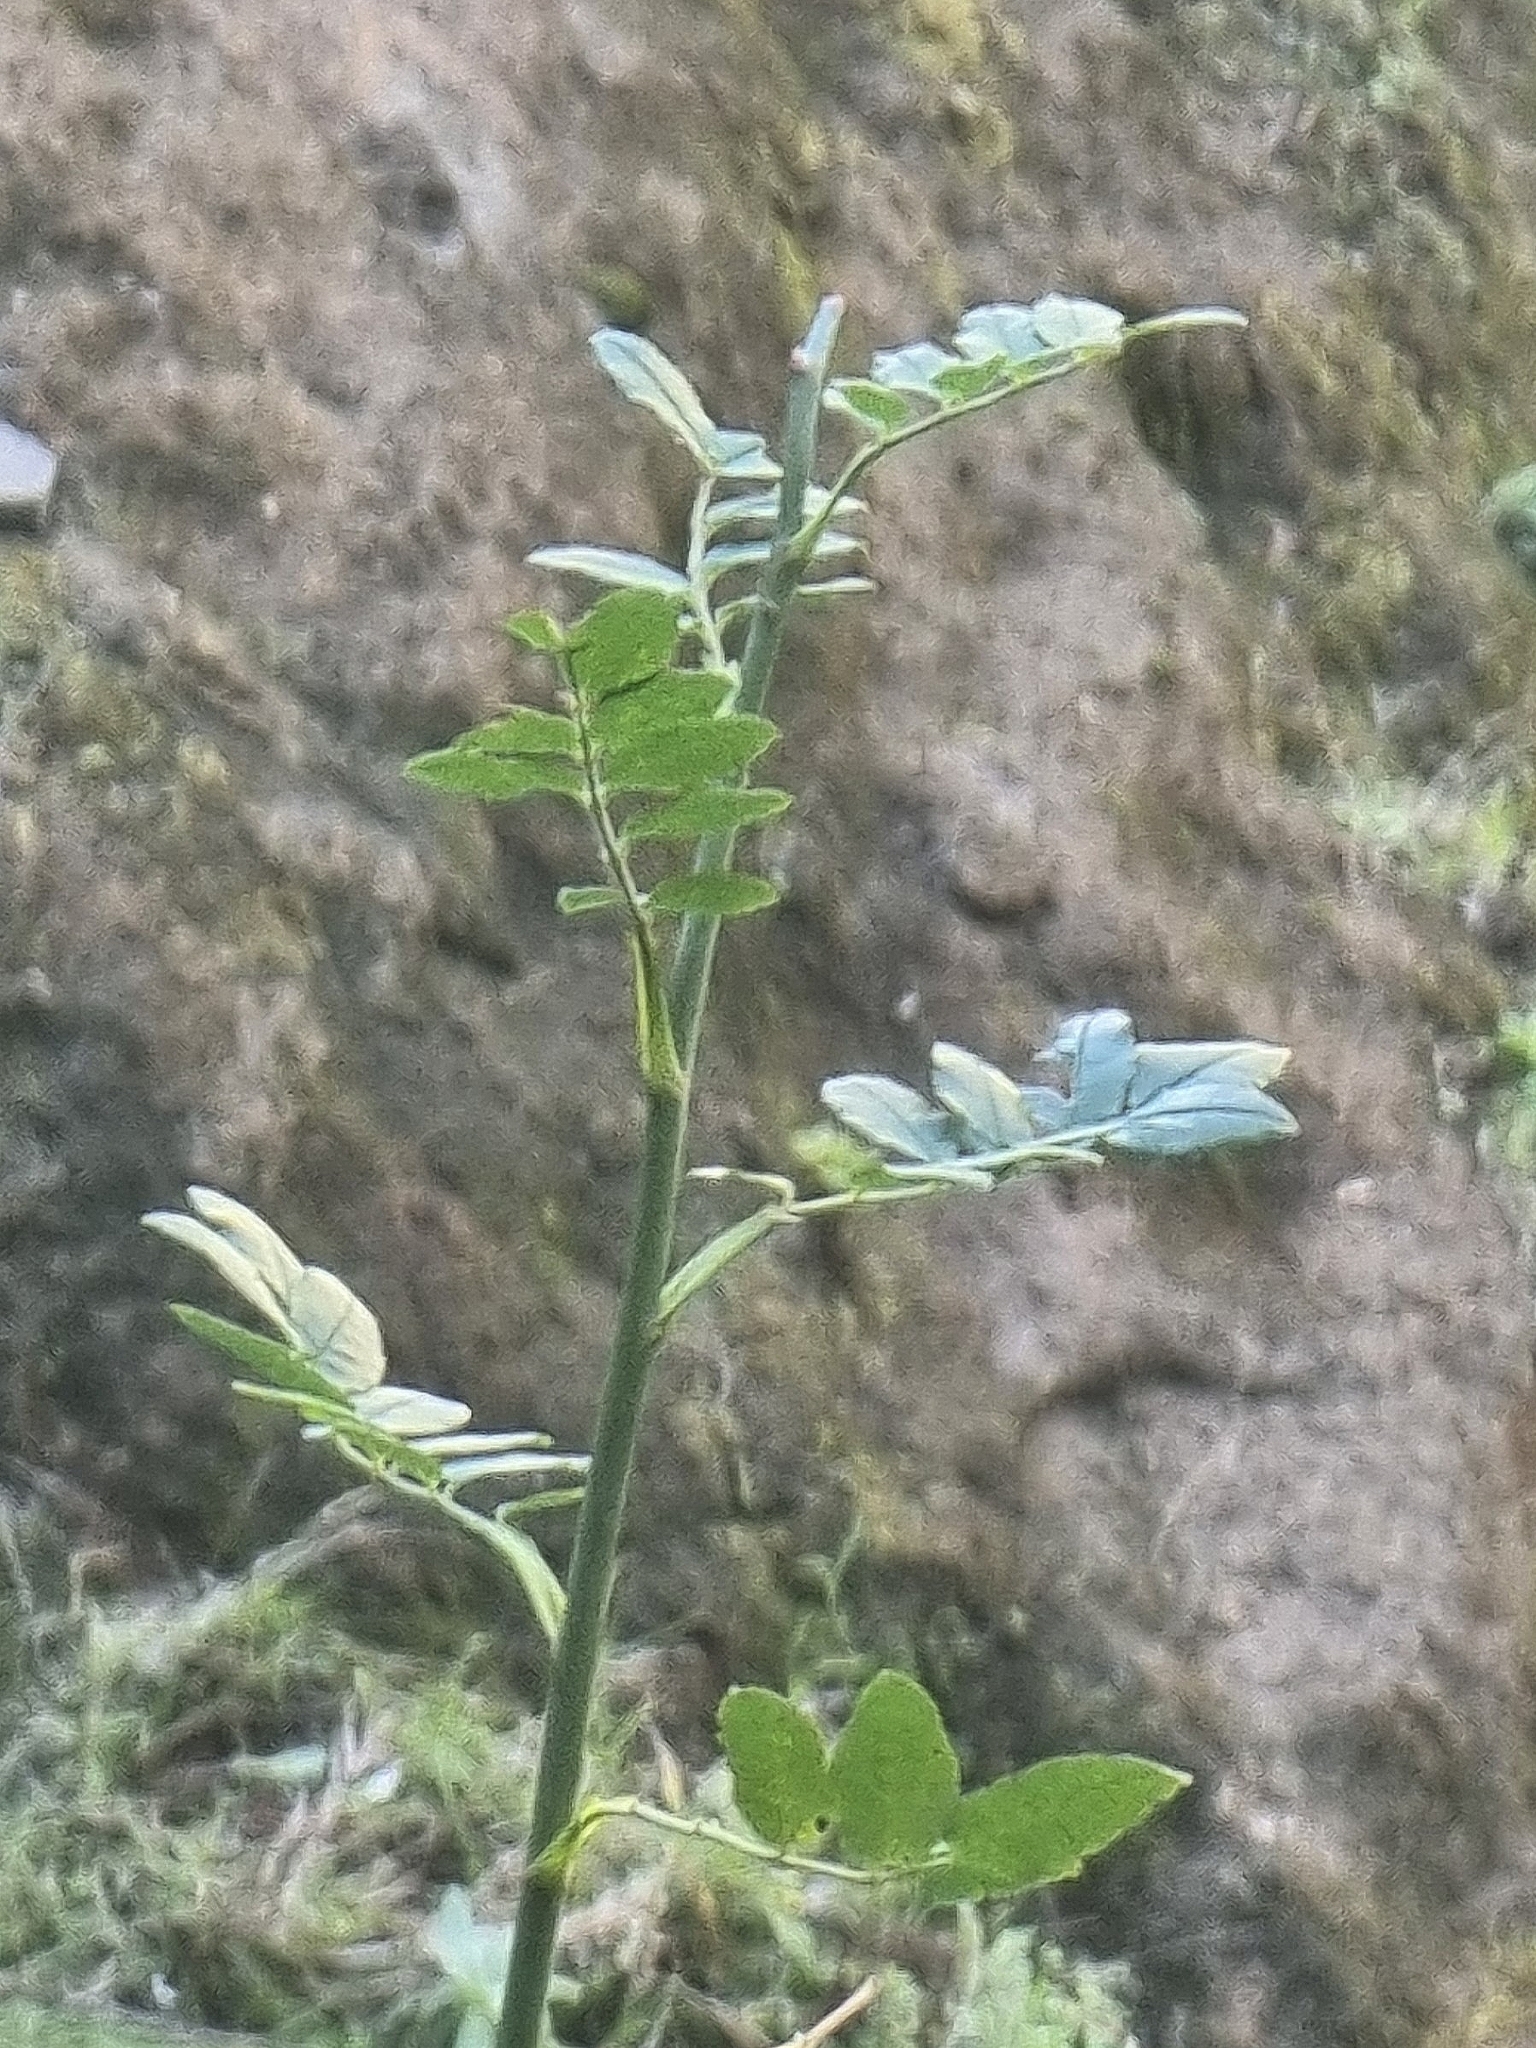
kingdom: Plantae
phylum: Tracheophyta
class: Magnoliopsida
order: Rosales
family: Rosaceae
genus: Rosa
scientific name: Rosa canina
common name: Dog rose
